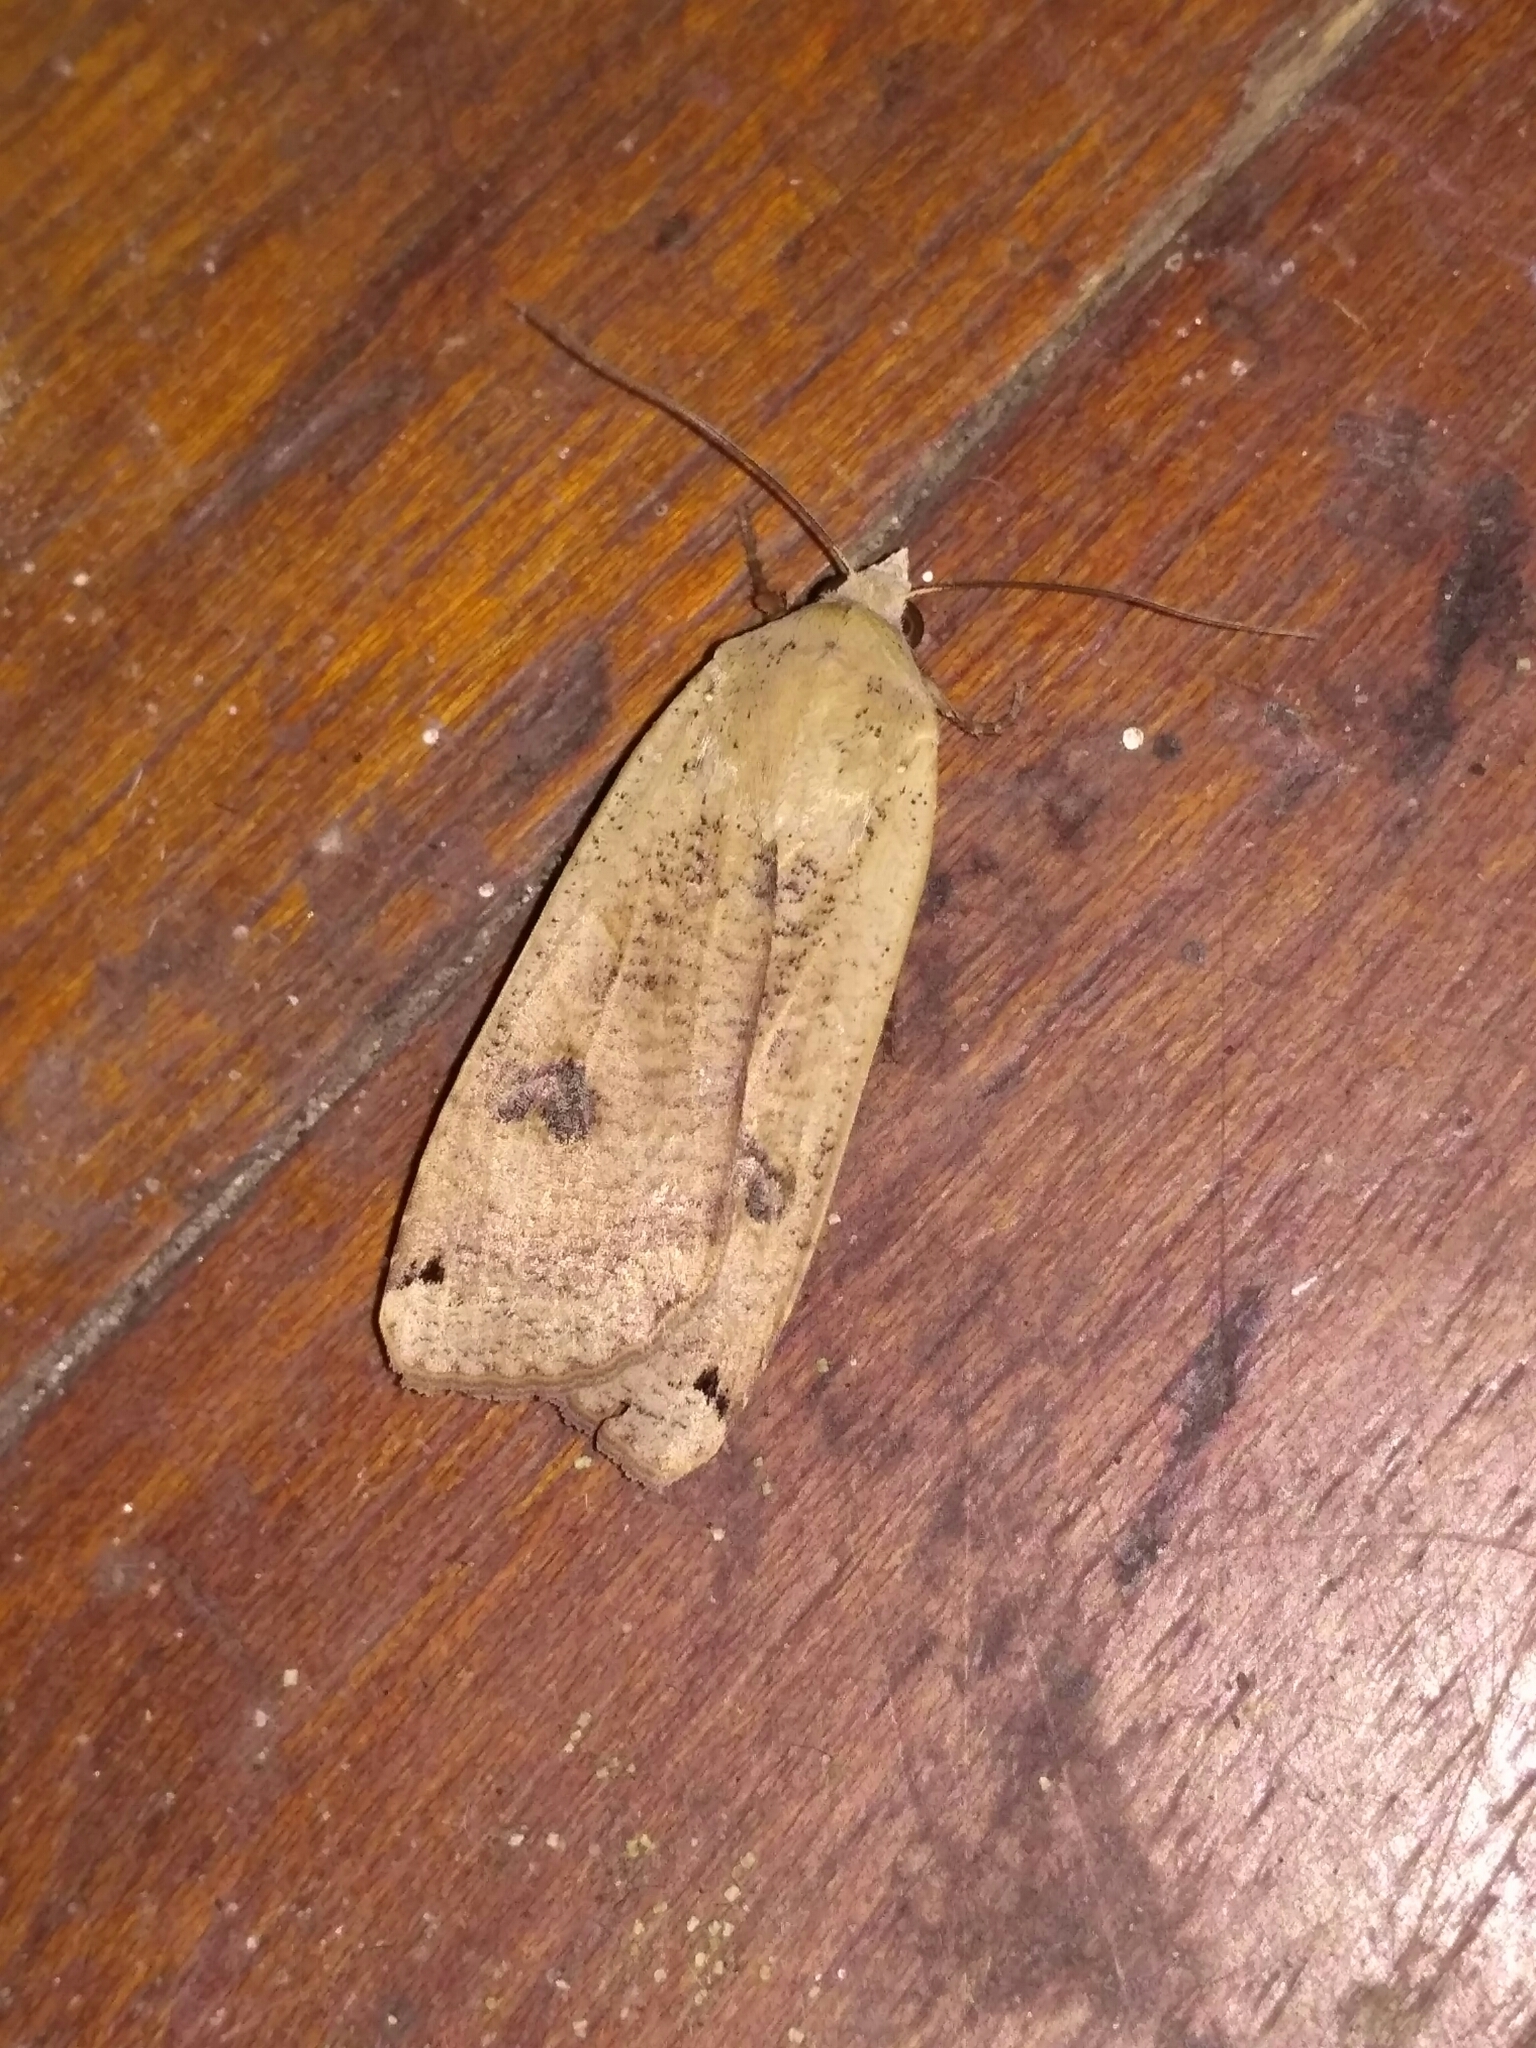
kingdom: Animalia
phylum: Arthropoda
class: Insecta
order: Lepidoptera
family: Noctuidae
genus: Noctua
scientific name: Noctua pronuba
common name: Large yellow underwing
